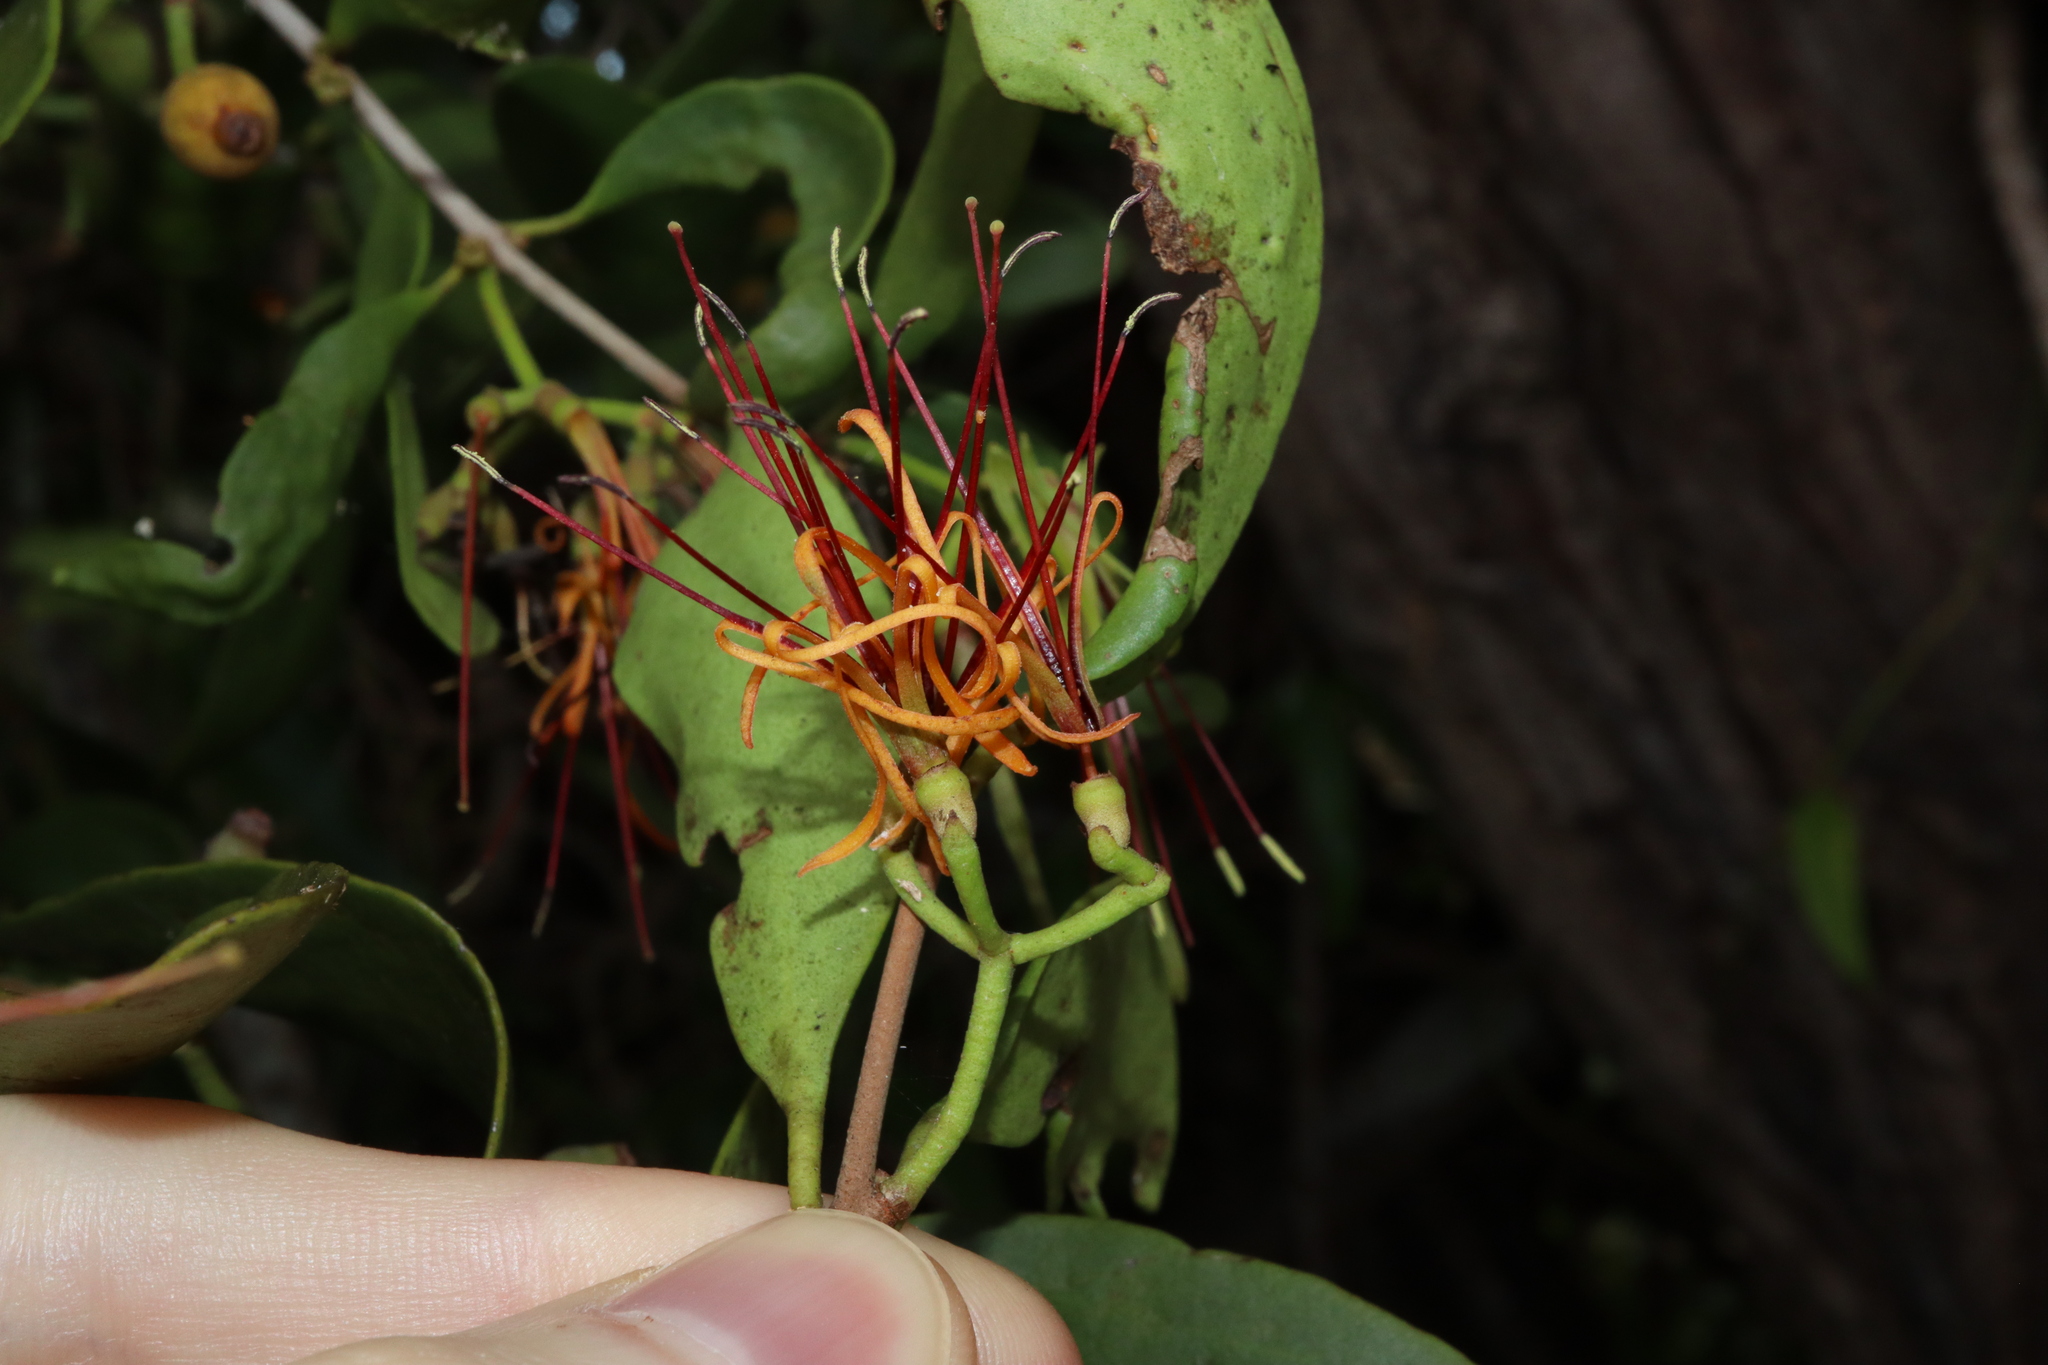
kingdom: Plantae
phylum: Tracheophyta
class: Magnoliopsida
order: Santalales
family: Loranthaceae
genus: Amyema
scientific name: Amyema congener
